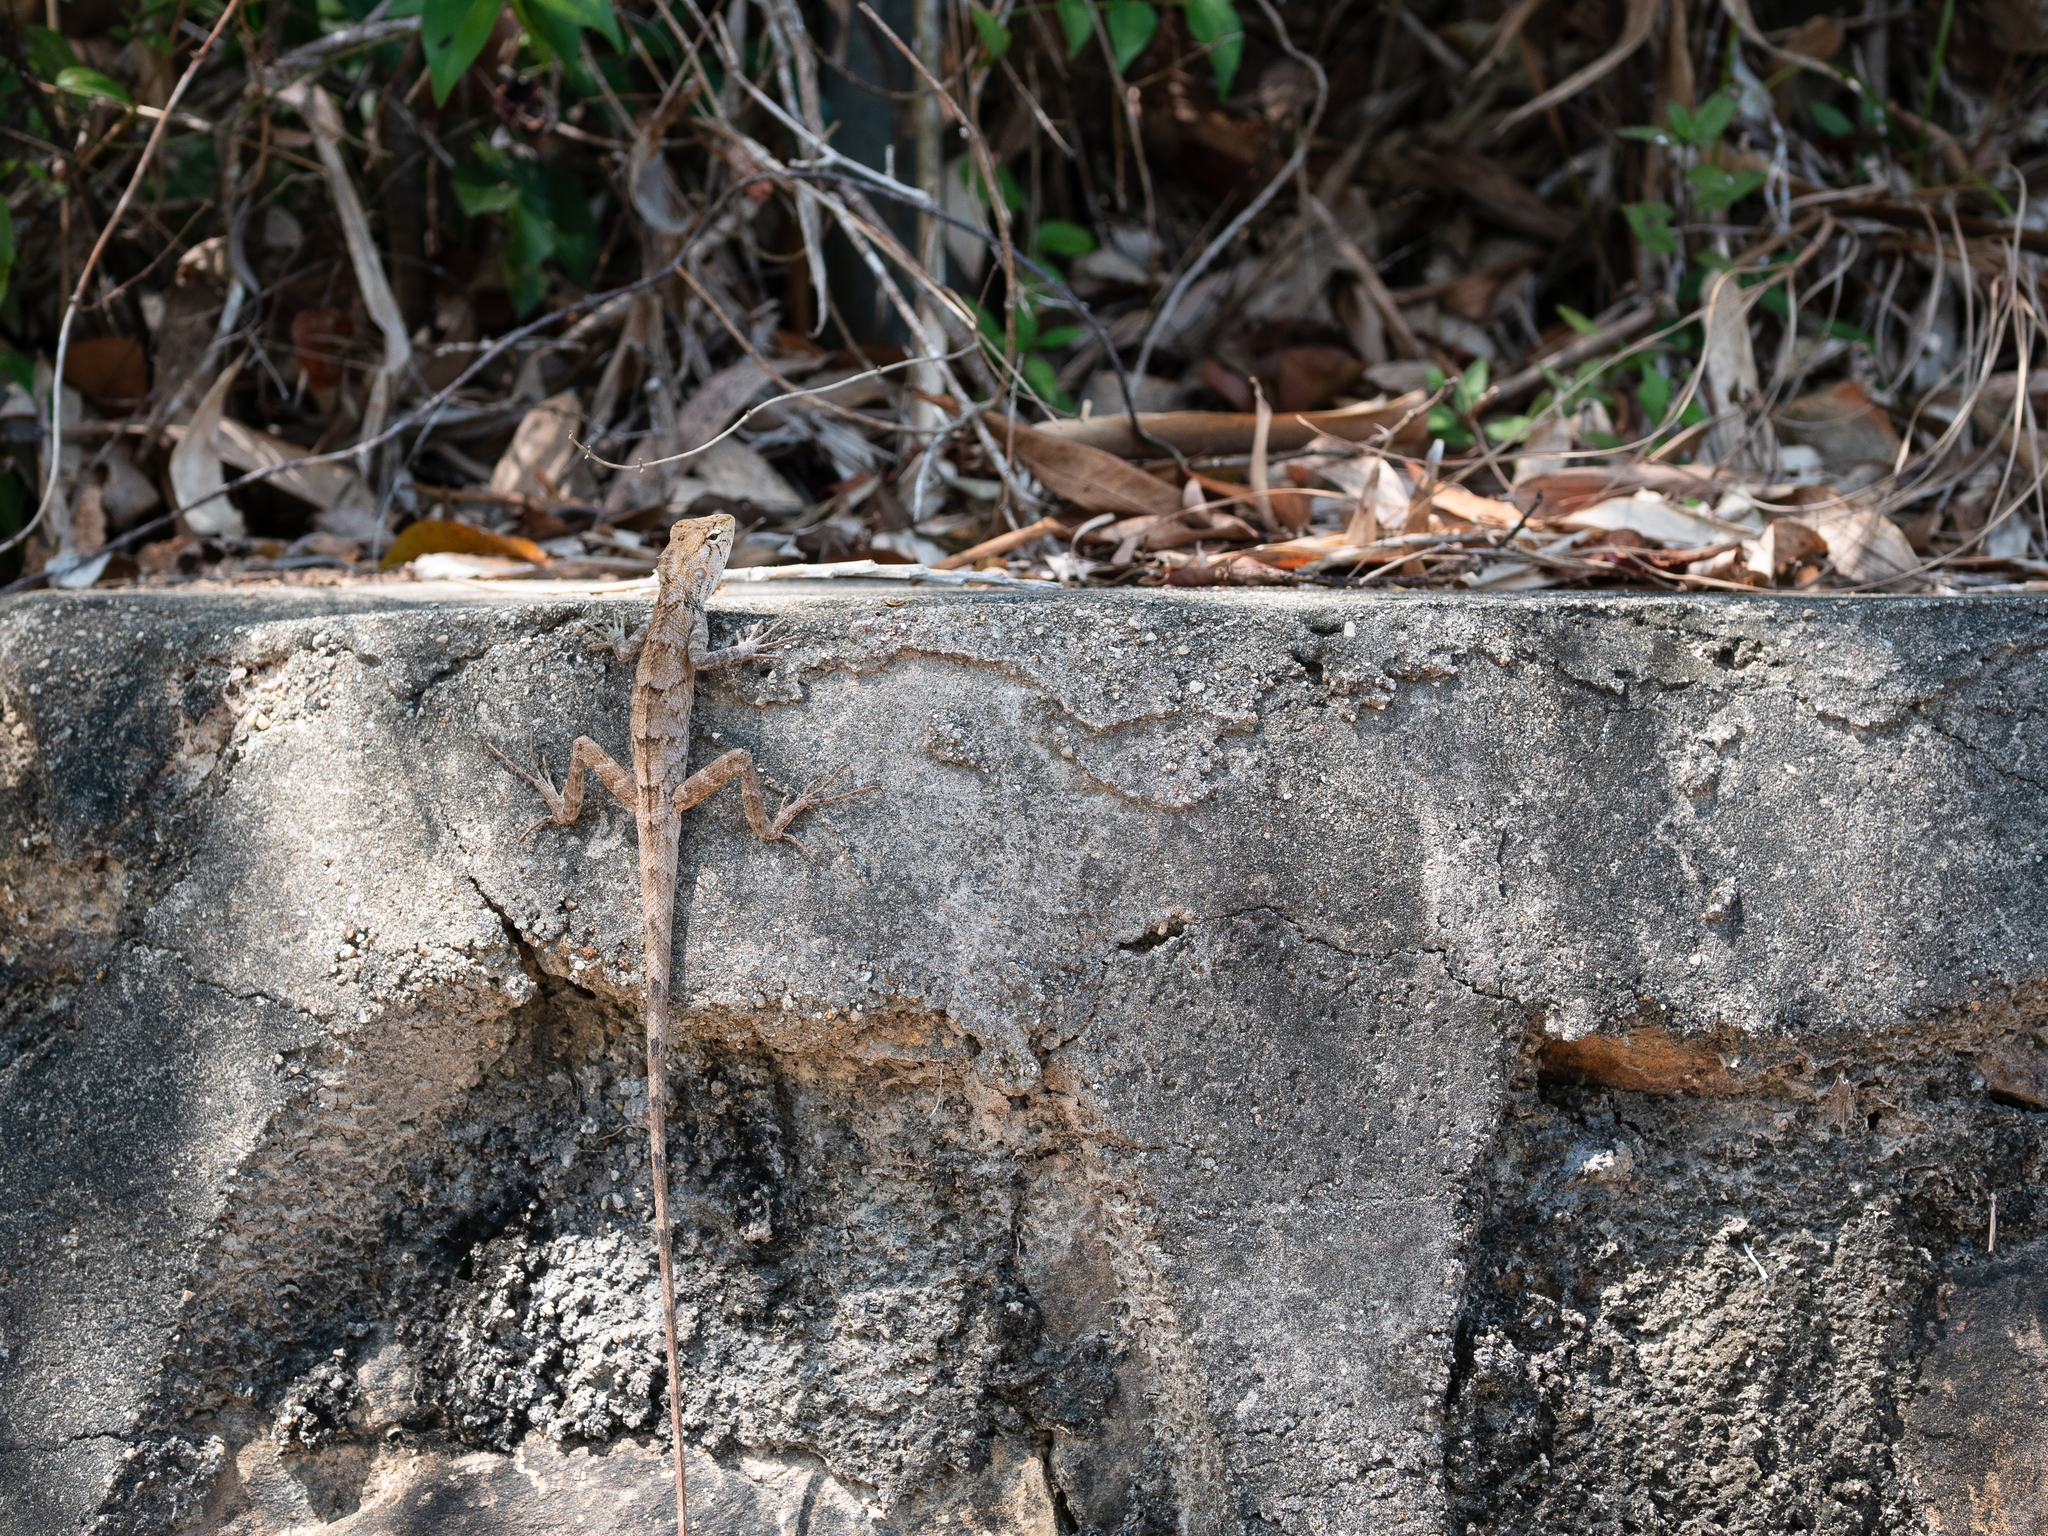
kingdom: Animalia
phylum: Chordata
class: Squamata
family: Agamidae
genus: Calotes
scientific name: Calotes versicolor
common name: Oriental garden lizard
